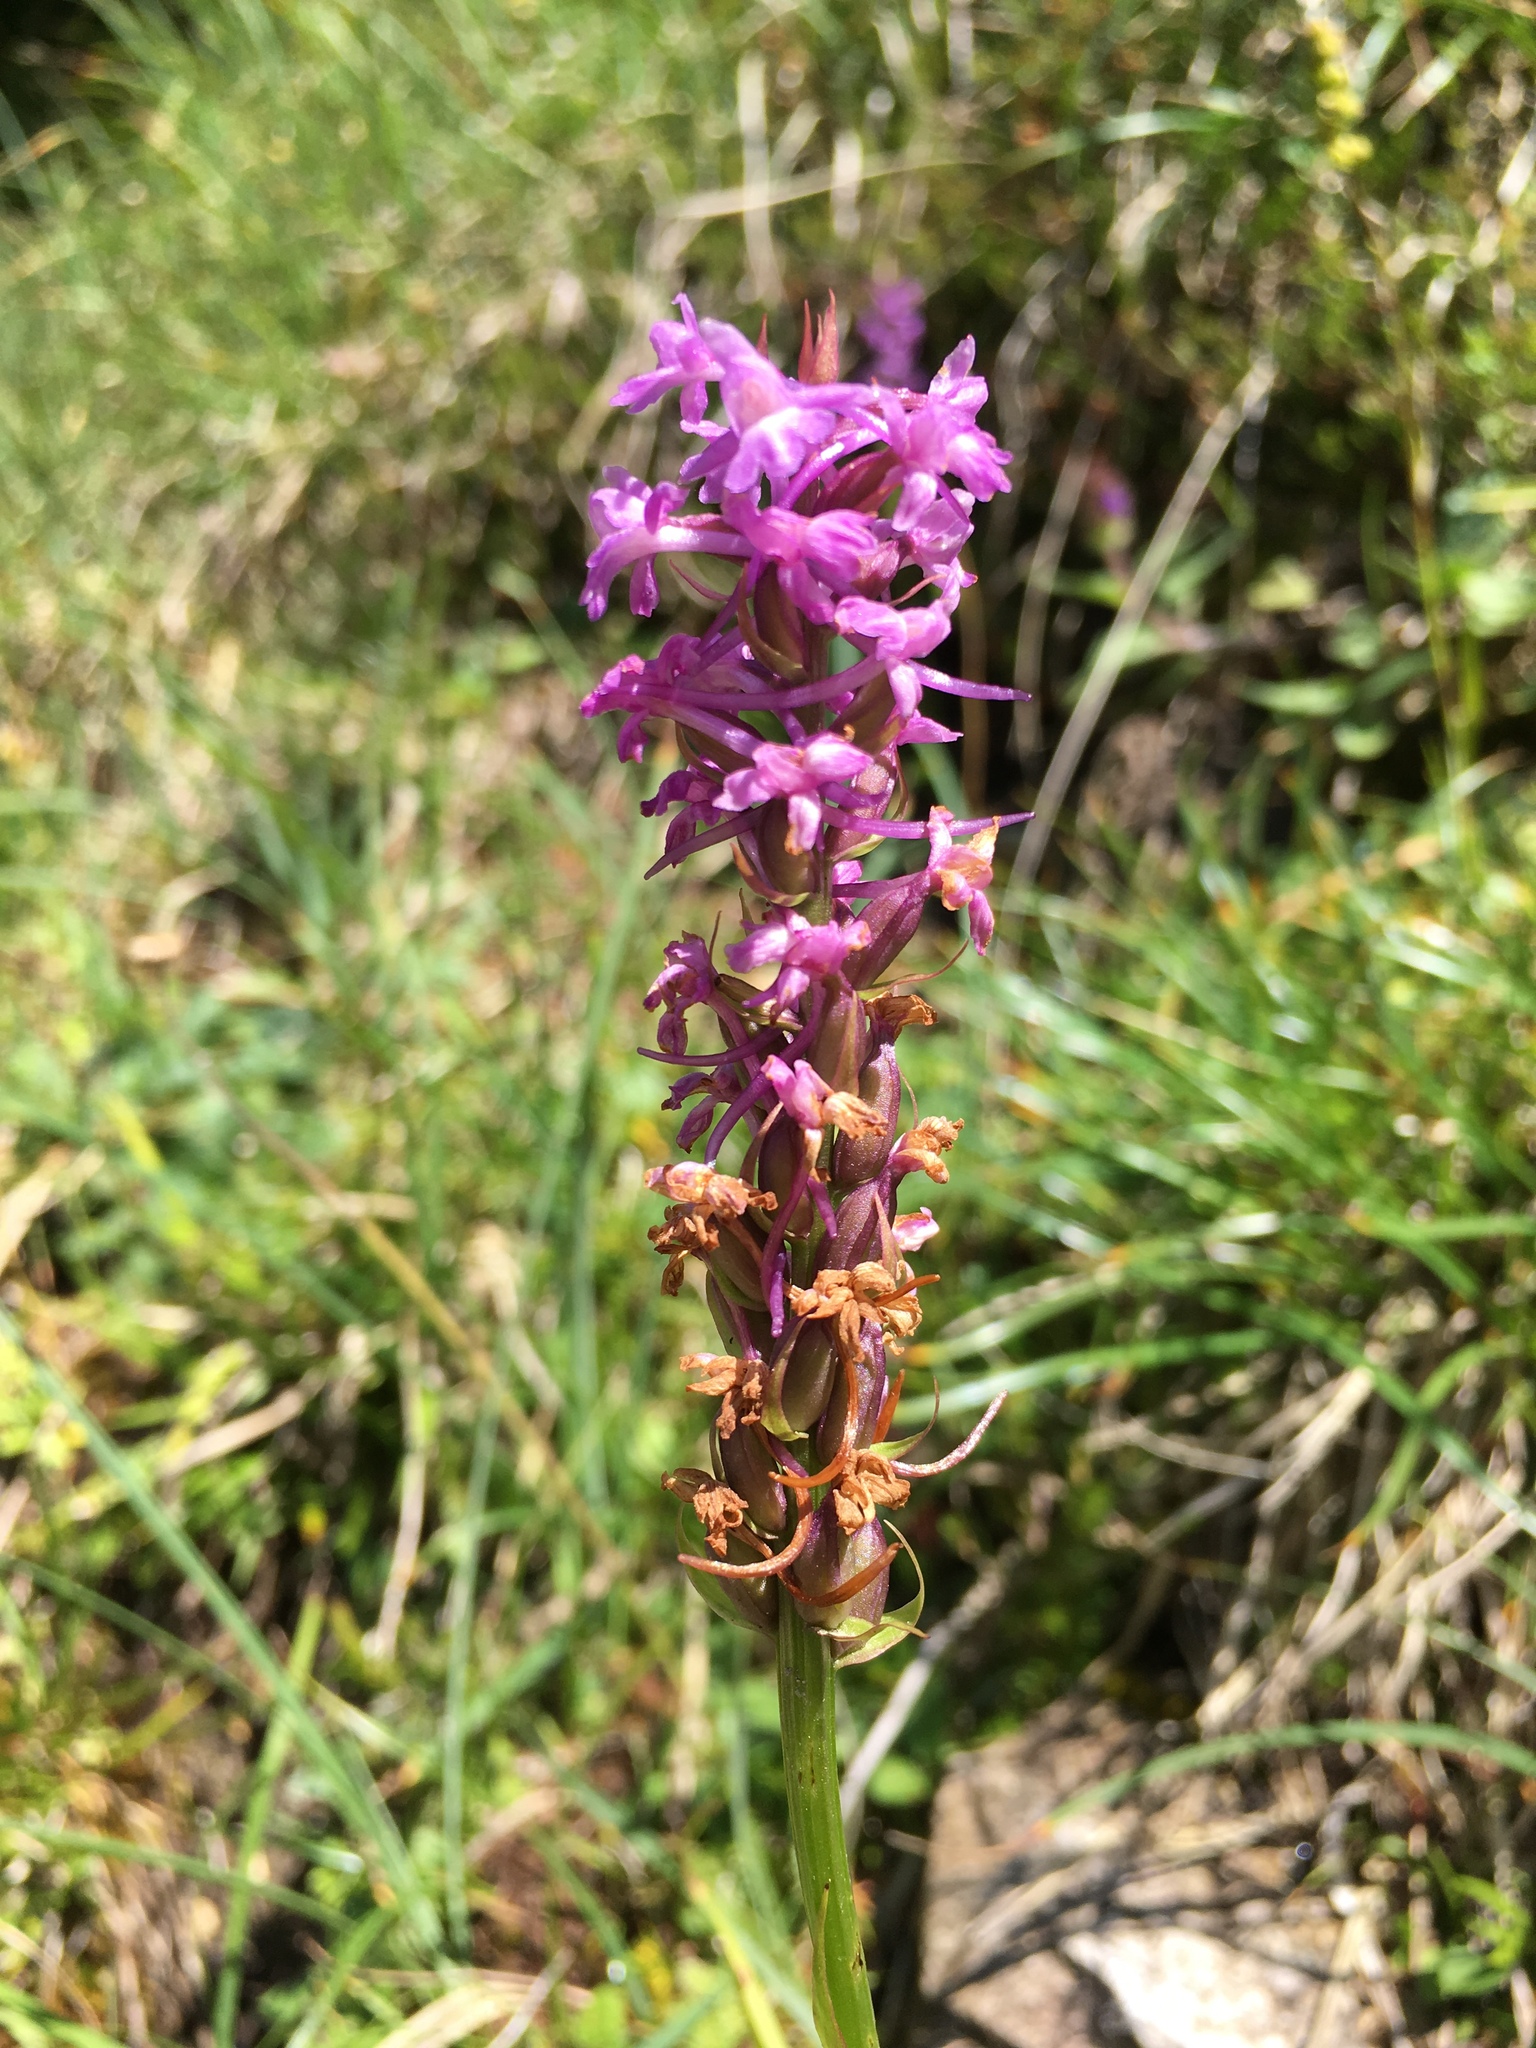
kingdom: Plantae
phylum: Tracheophyta
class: Liliopsida
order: Asparagales
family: Orchidaceae
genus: Gymnadenia
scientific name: Gymnadenia conopsea
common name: Fragrant orchid
